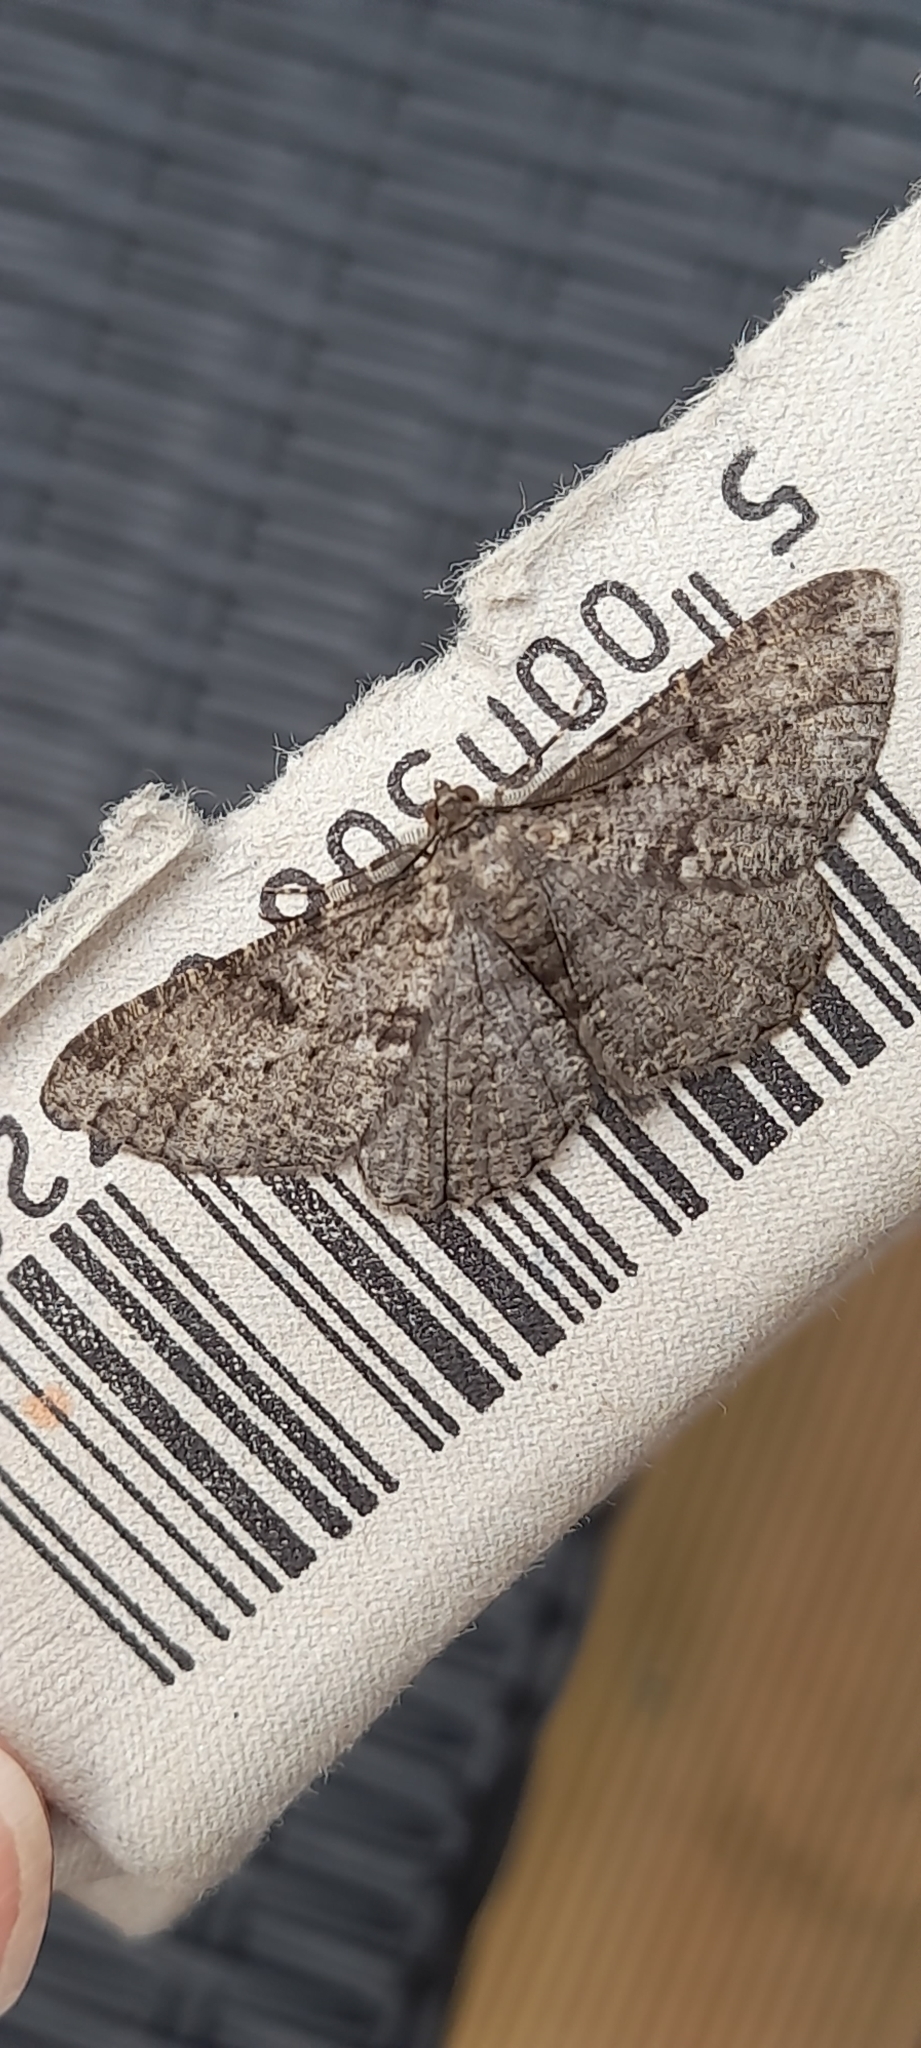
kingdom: Animalia
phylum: Arthropoda
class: Insecta
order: Lepidoptera
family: Geometridae
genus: Peribatodes
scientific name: Peribatodes rhomboidaria
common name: Willow beauty
